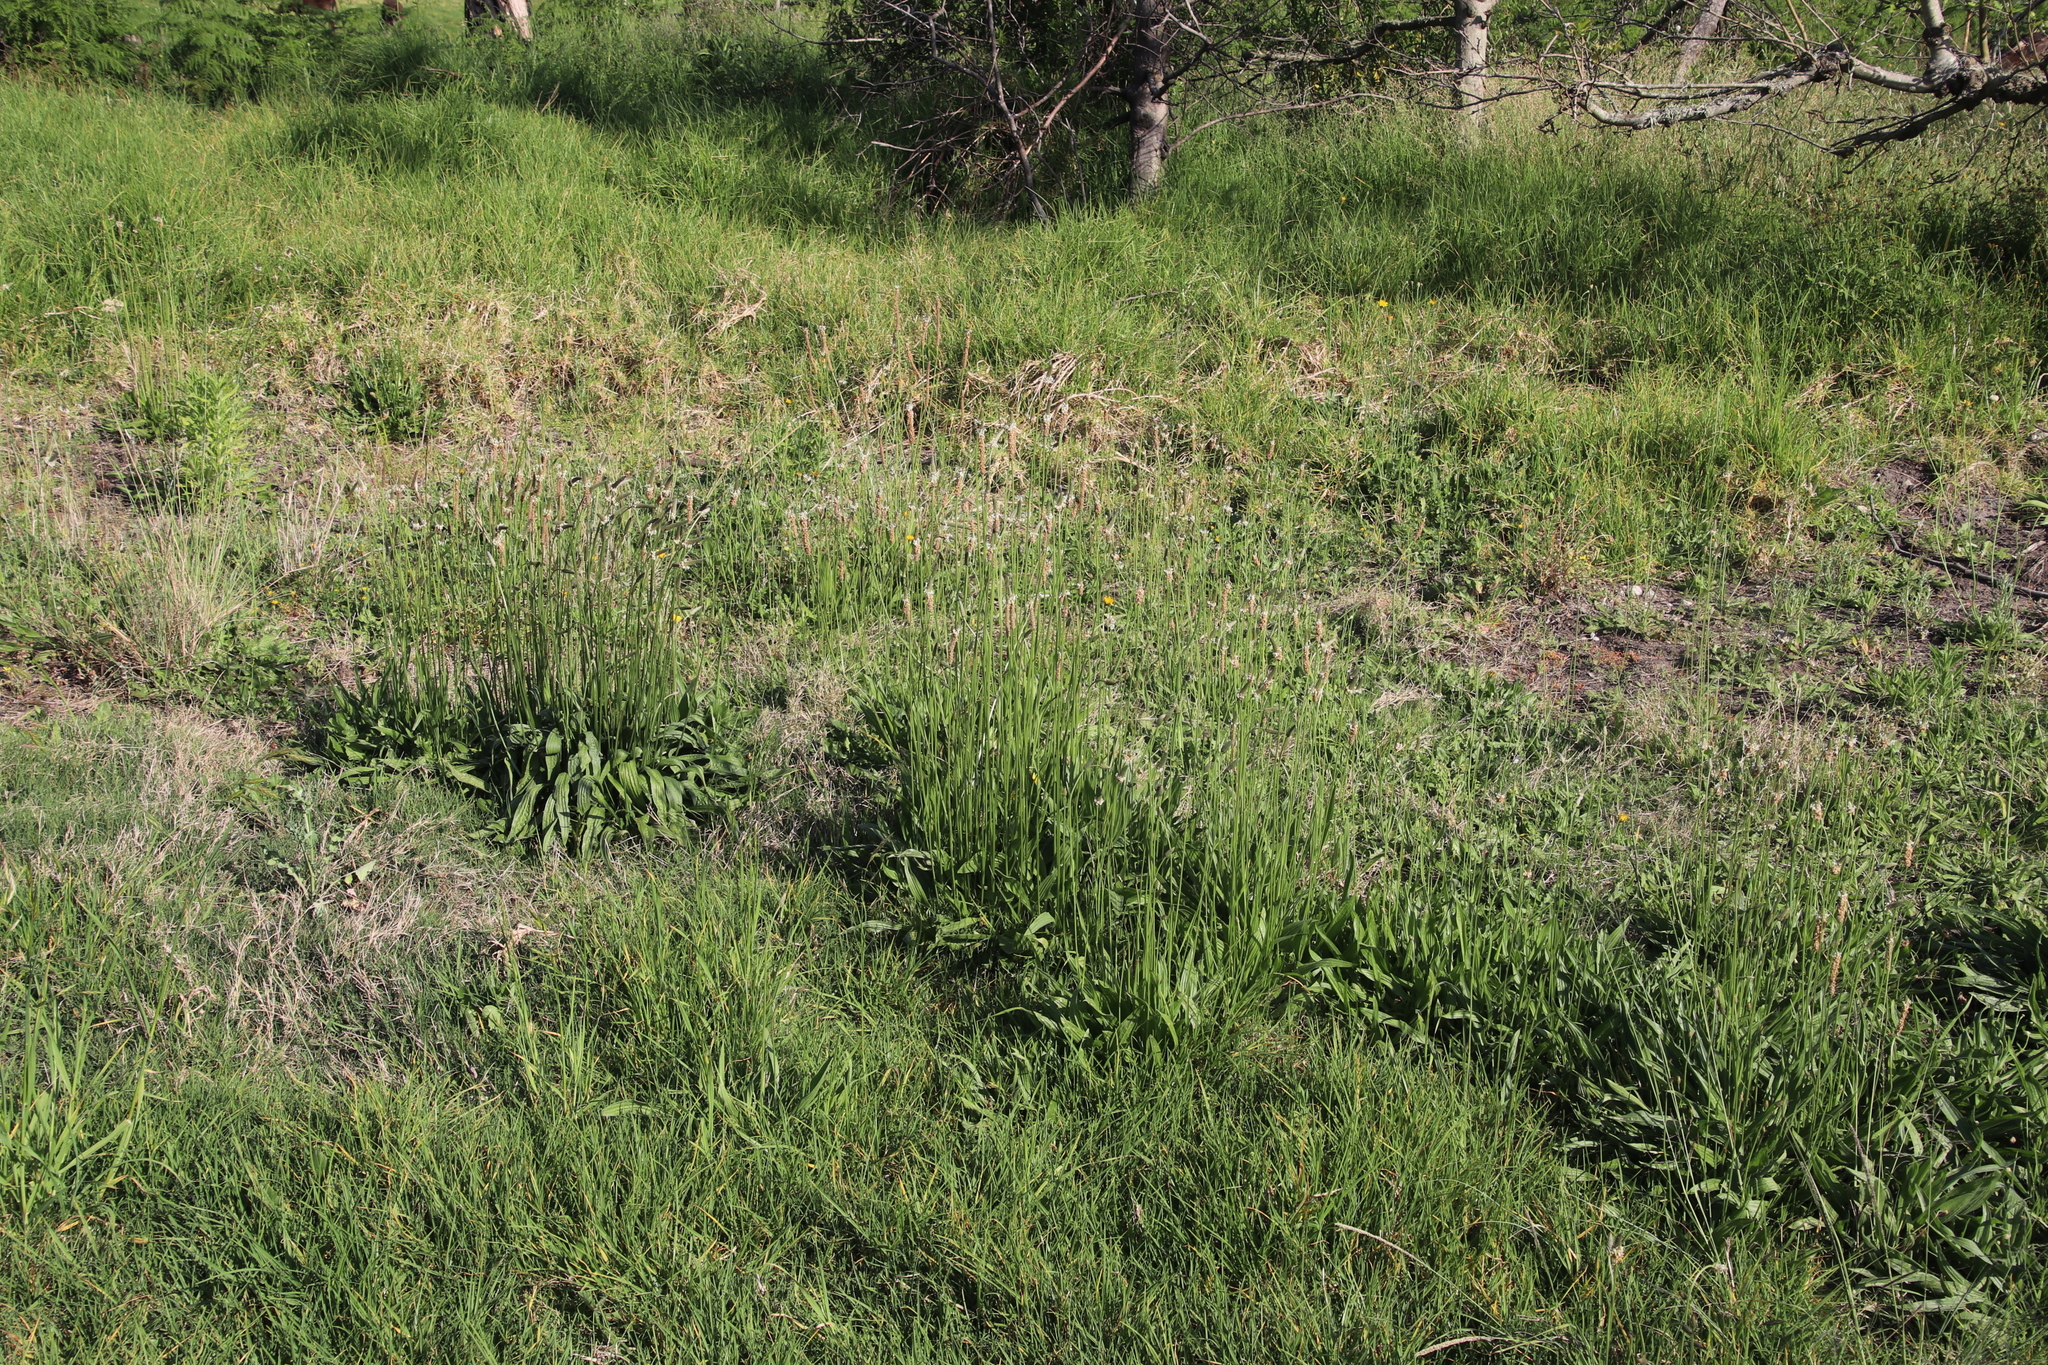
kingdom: Plantae
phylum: Tracheophyta
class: Magnoliopsida
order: Lamiales
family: Plantaginaceae
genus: Plantago
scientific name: Plantago lanceolata
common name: Ribwort plantain
